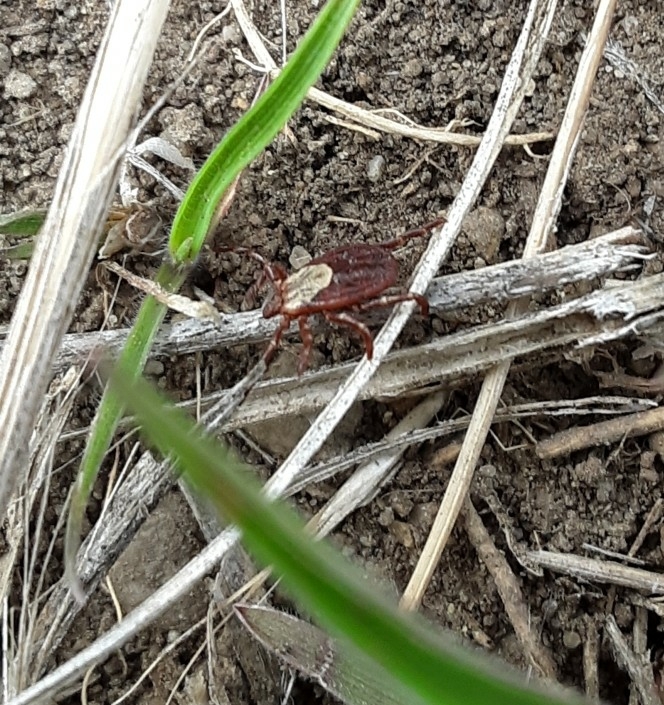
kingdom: Animalia
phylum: Arthropoda
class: Arachnida
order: Ixodida
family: Ixodidae
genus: Dermacentor
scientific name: Dermacentor variabilis
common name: American dog tick
